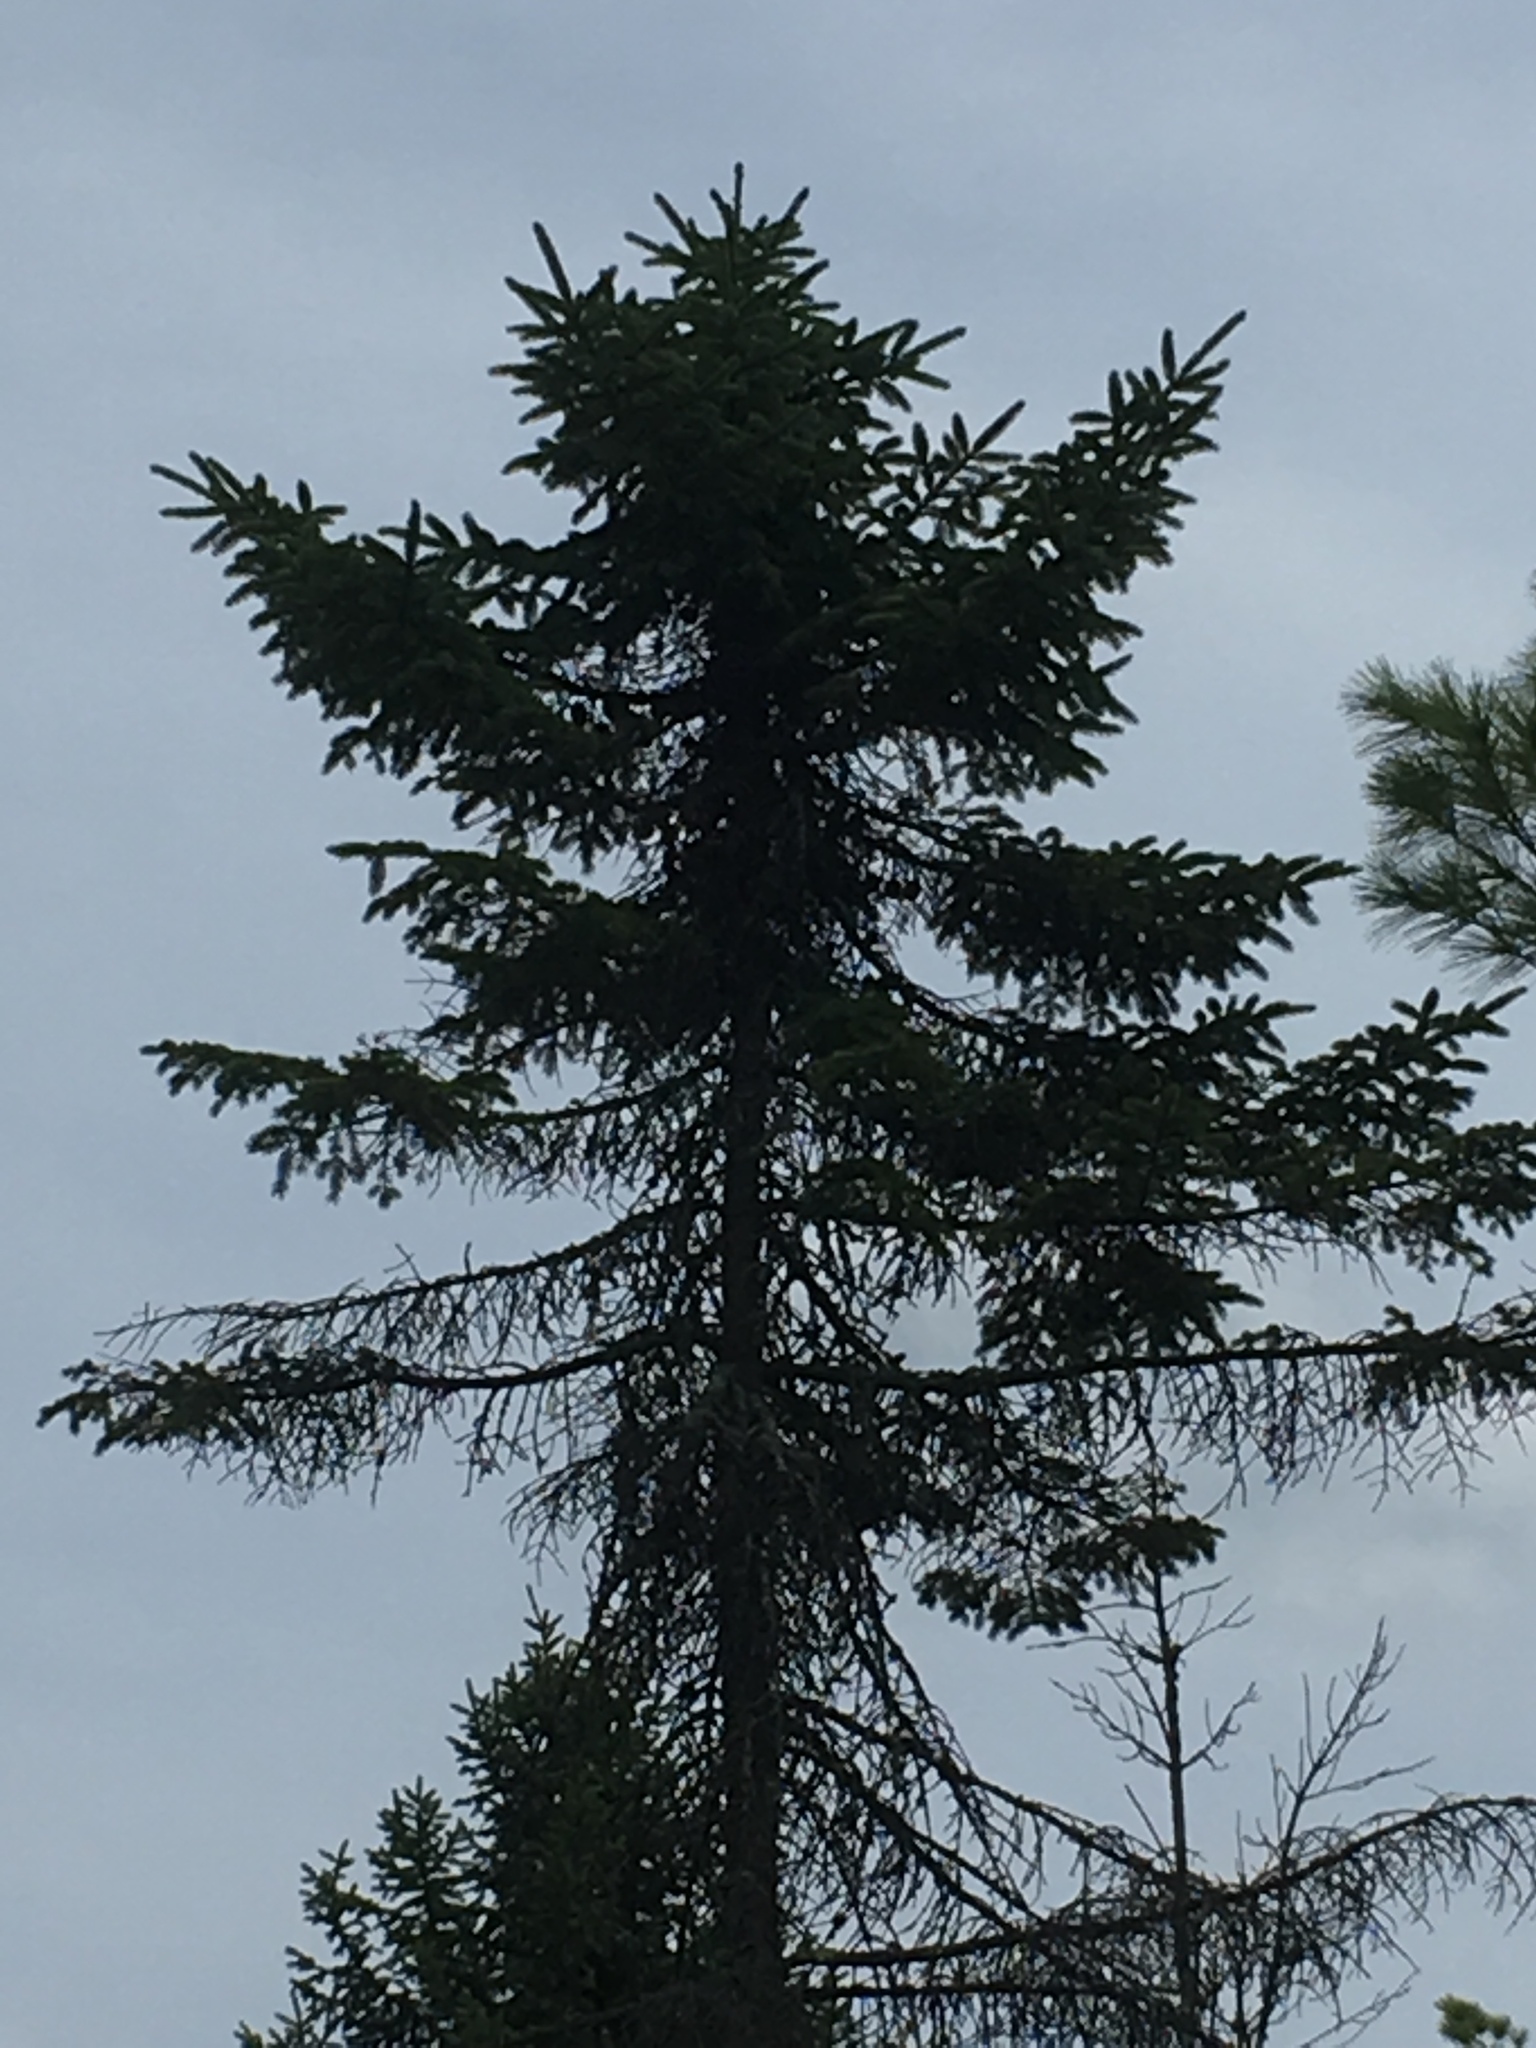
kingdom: Plantae
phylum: Tracheophyta
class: Pinopsida
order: Pinales
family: Pinaceae
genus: Picea
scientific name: Picea mariana
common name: Black spruce
